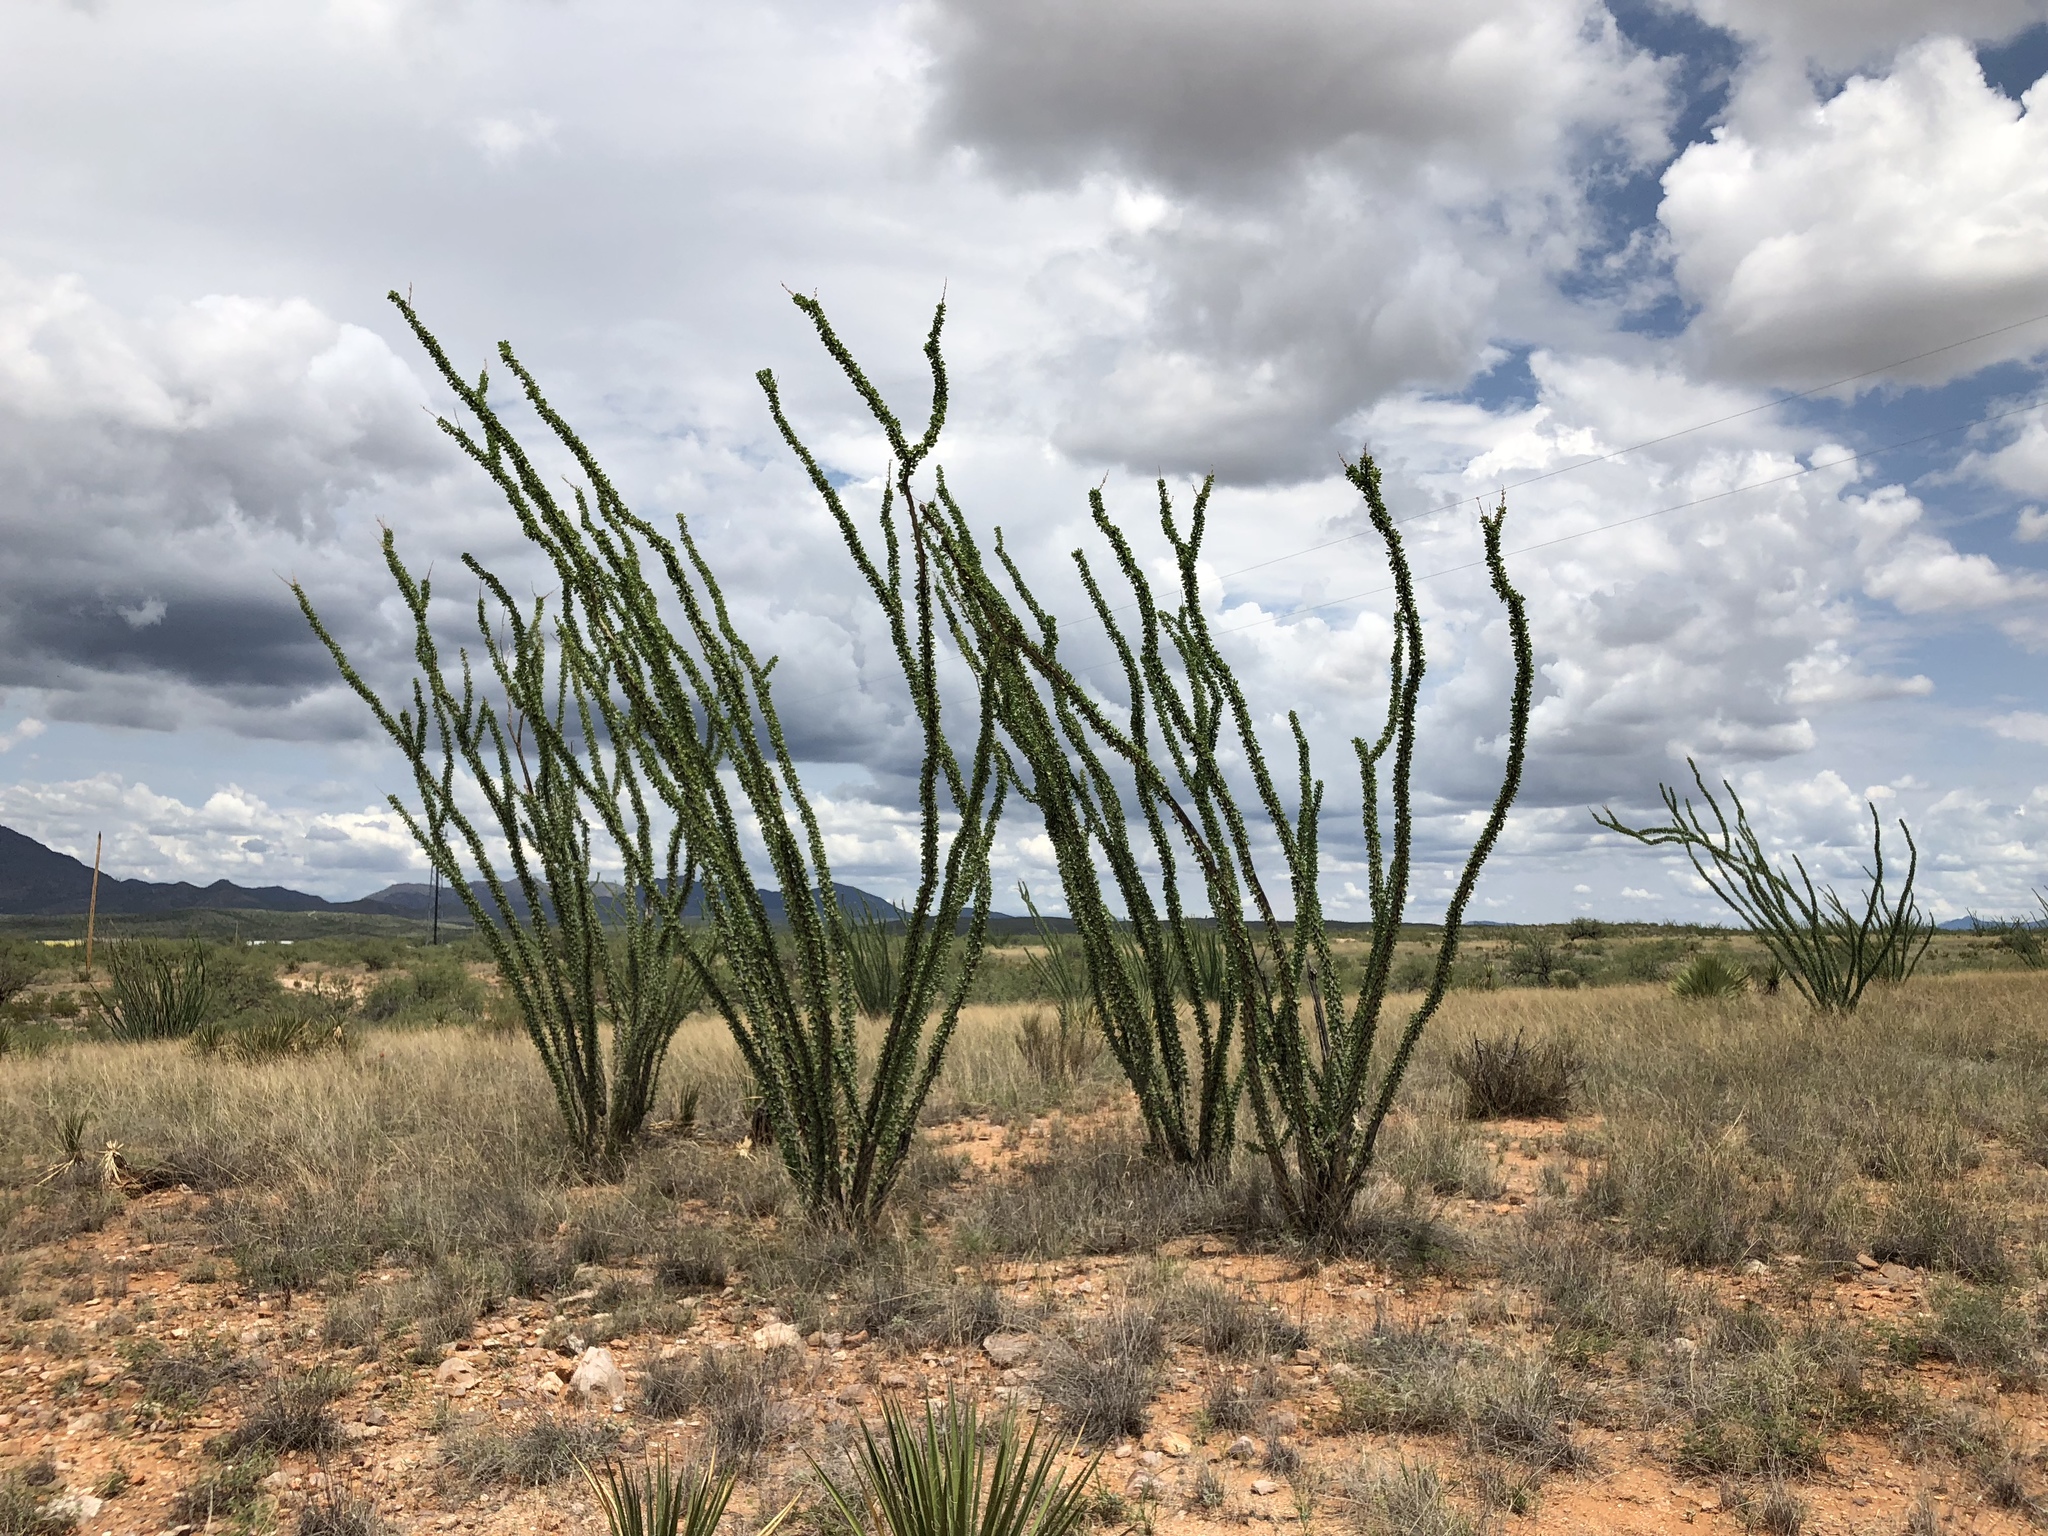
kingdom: Plantae
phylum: Tracheophyta
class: Magnoliopsida
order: Ericales
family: Fouquieriaceae
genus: Fouquieria
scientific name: Fouquieria splendens
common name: Vine-cactus
